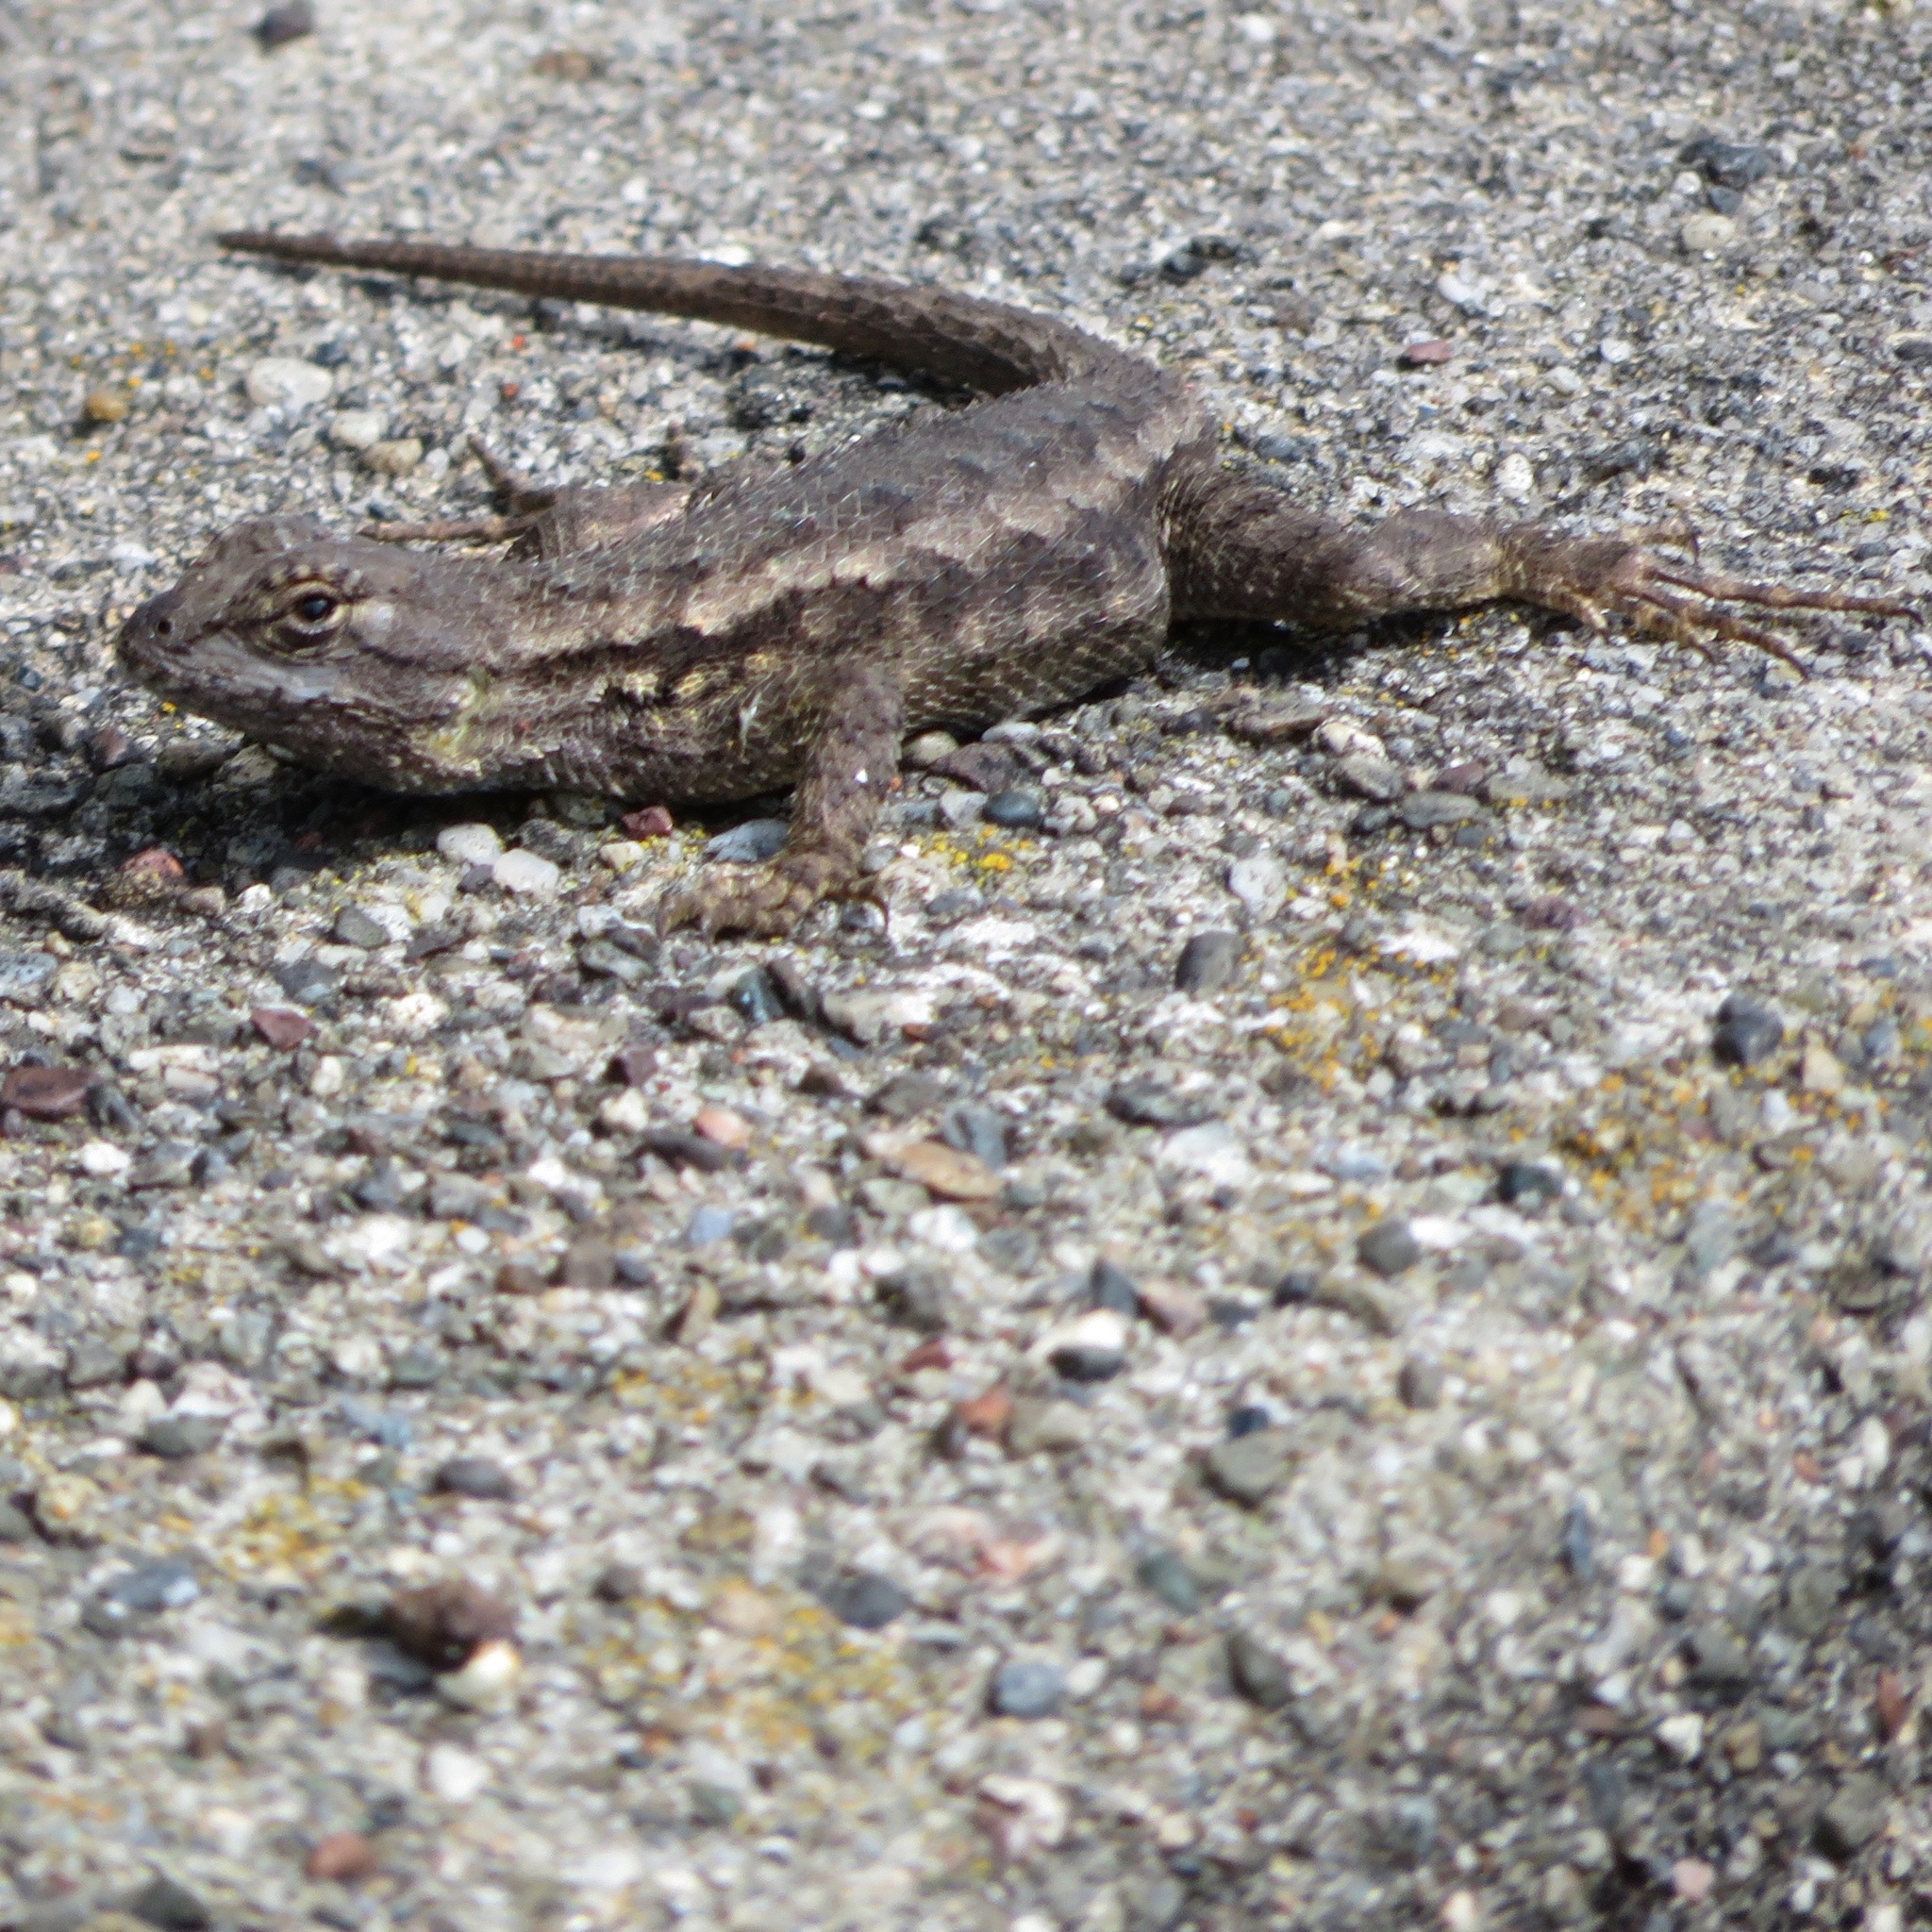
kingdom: Animalia
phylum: Chordata
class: Squamata
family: Phrynosomatidae
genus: Sceloporus
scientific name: Sceloporus occidentalis
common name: Western fence lizard
